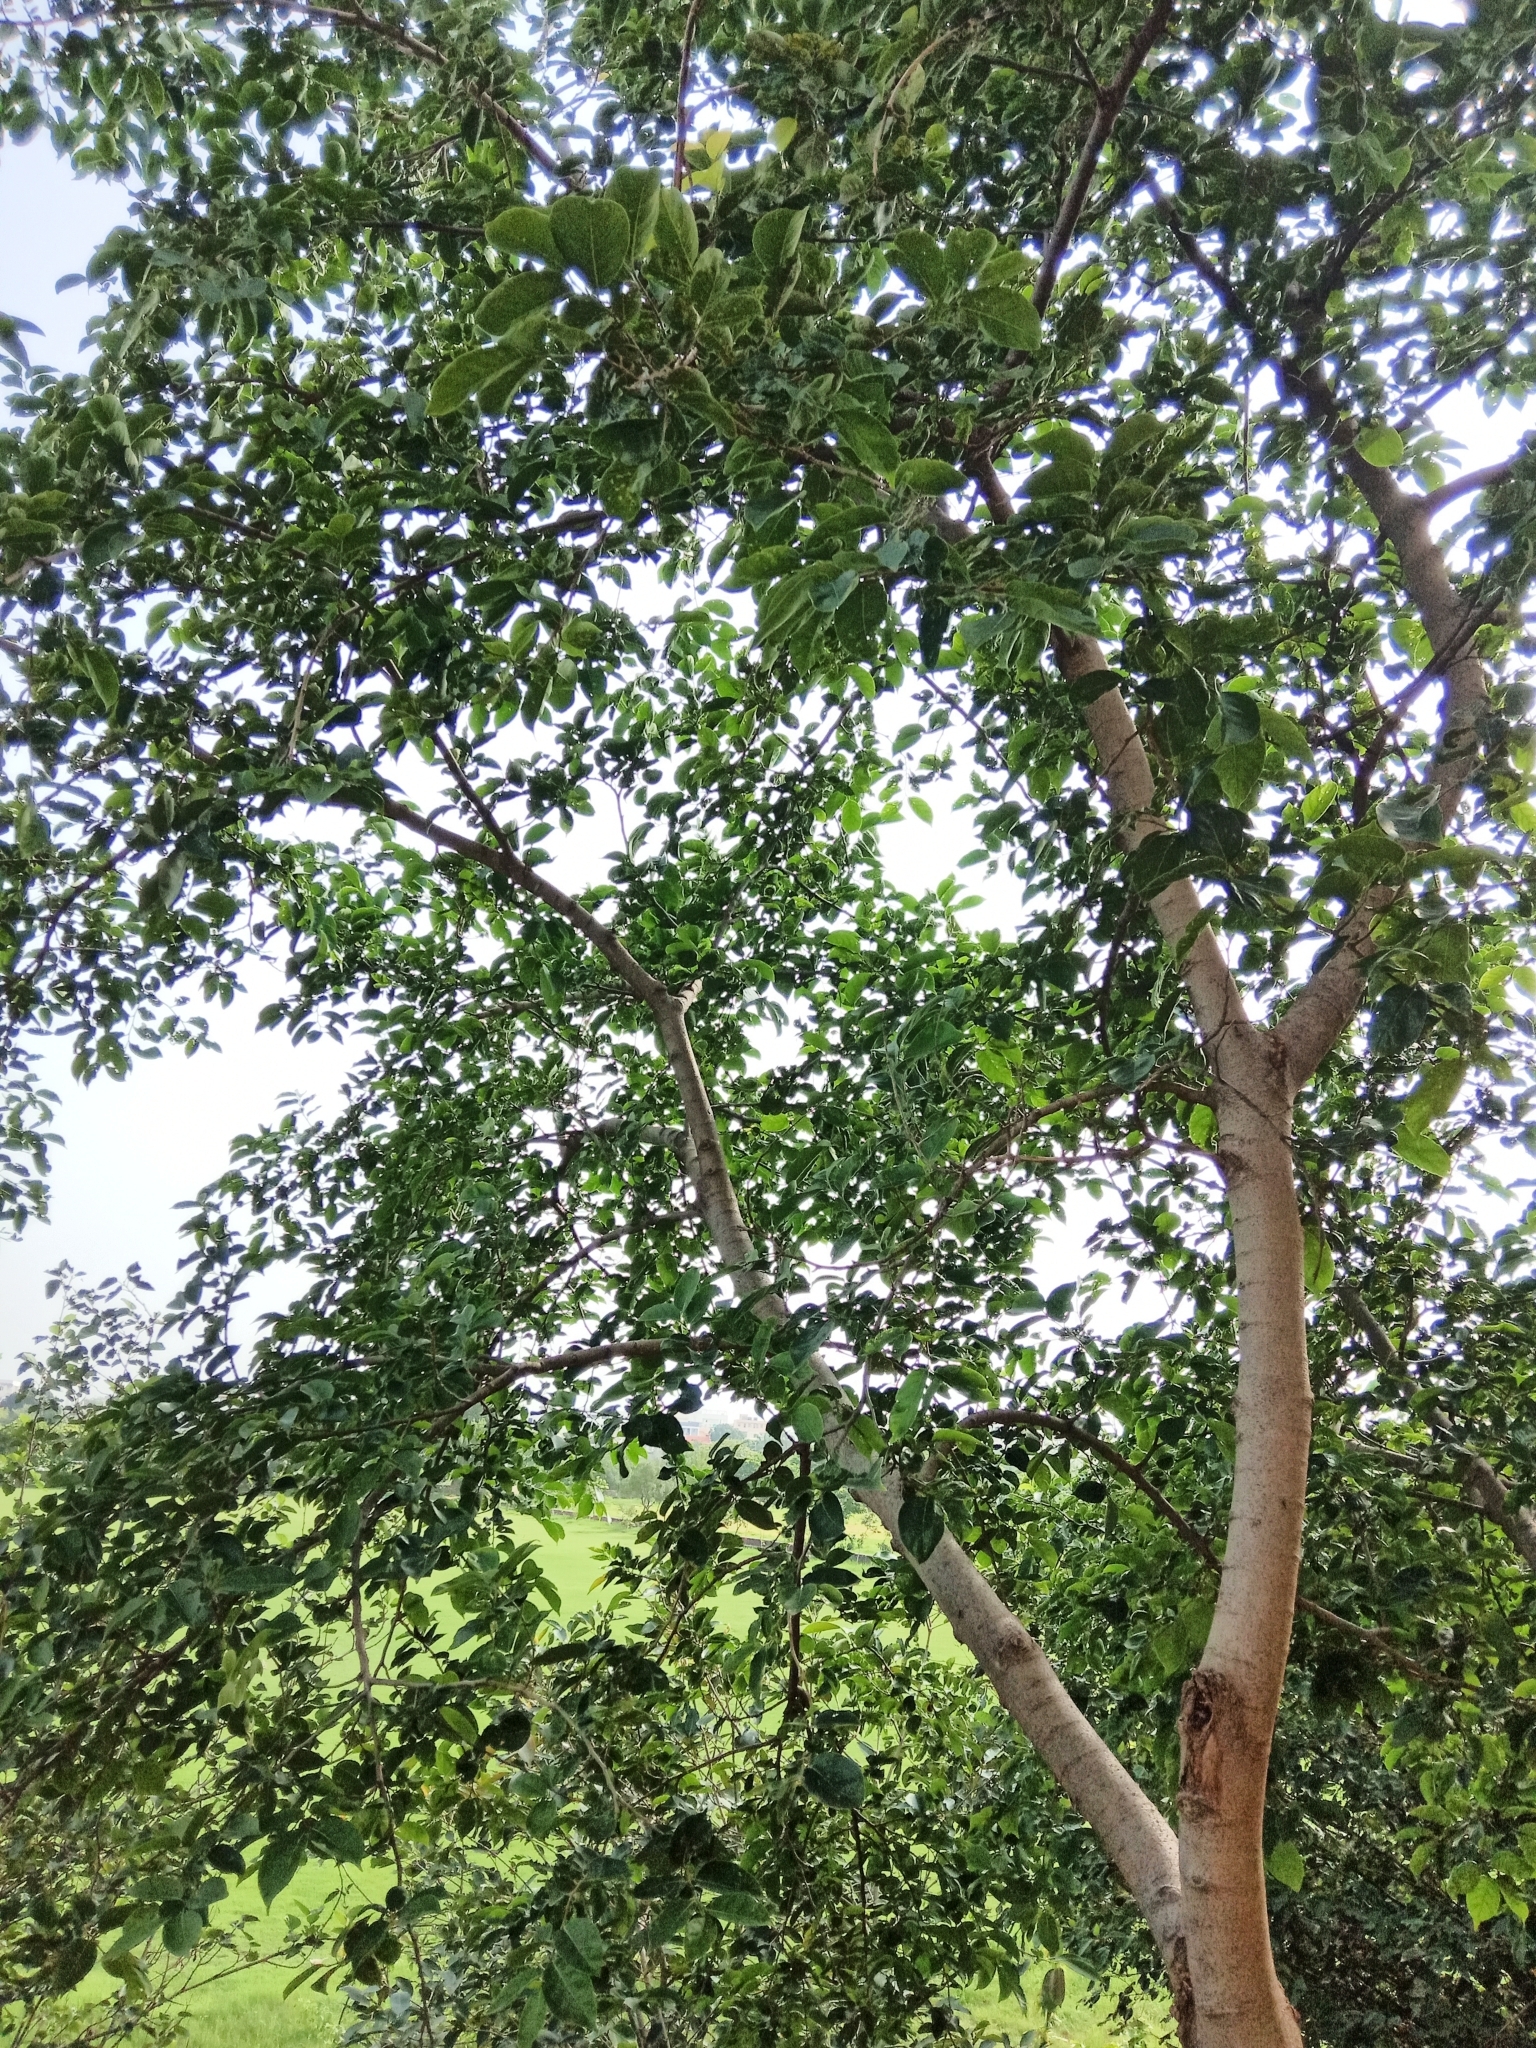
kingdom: Plantae
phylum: Tracheophyta
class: Magnoliopsida
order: Rosales
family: Ulmaceae
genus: Holoptelea
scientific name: Holoptelea integrifolia
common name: Indian-elm
